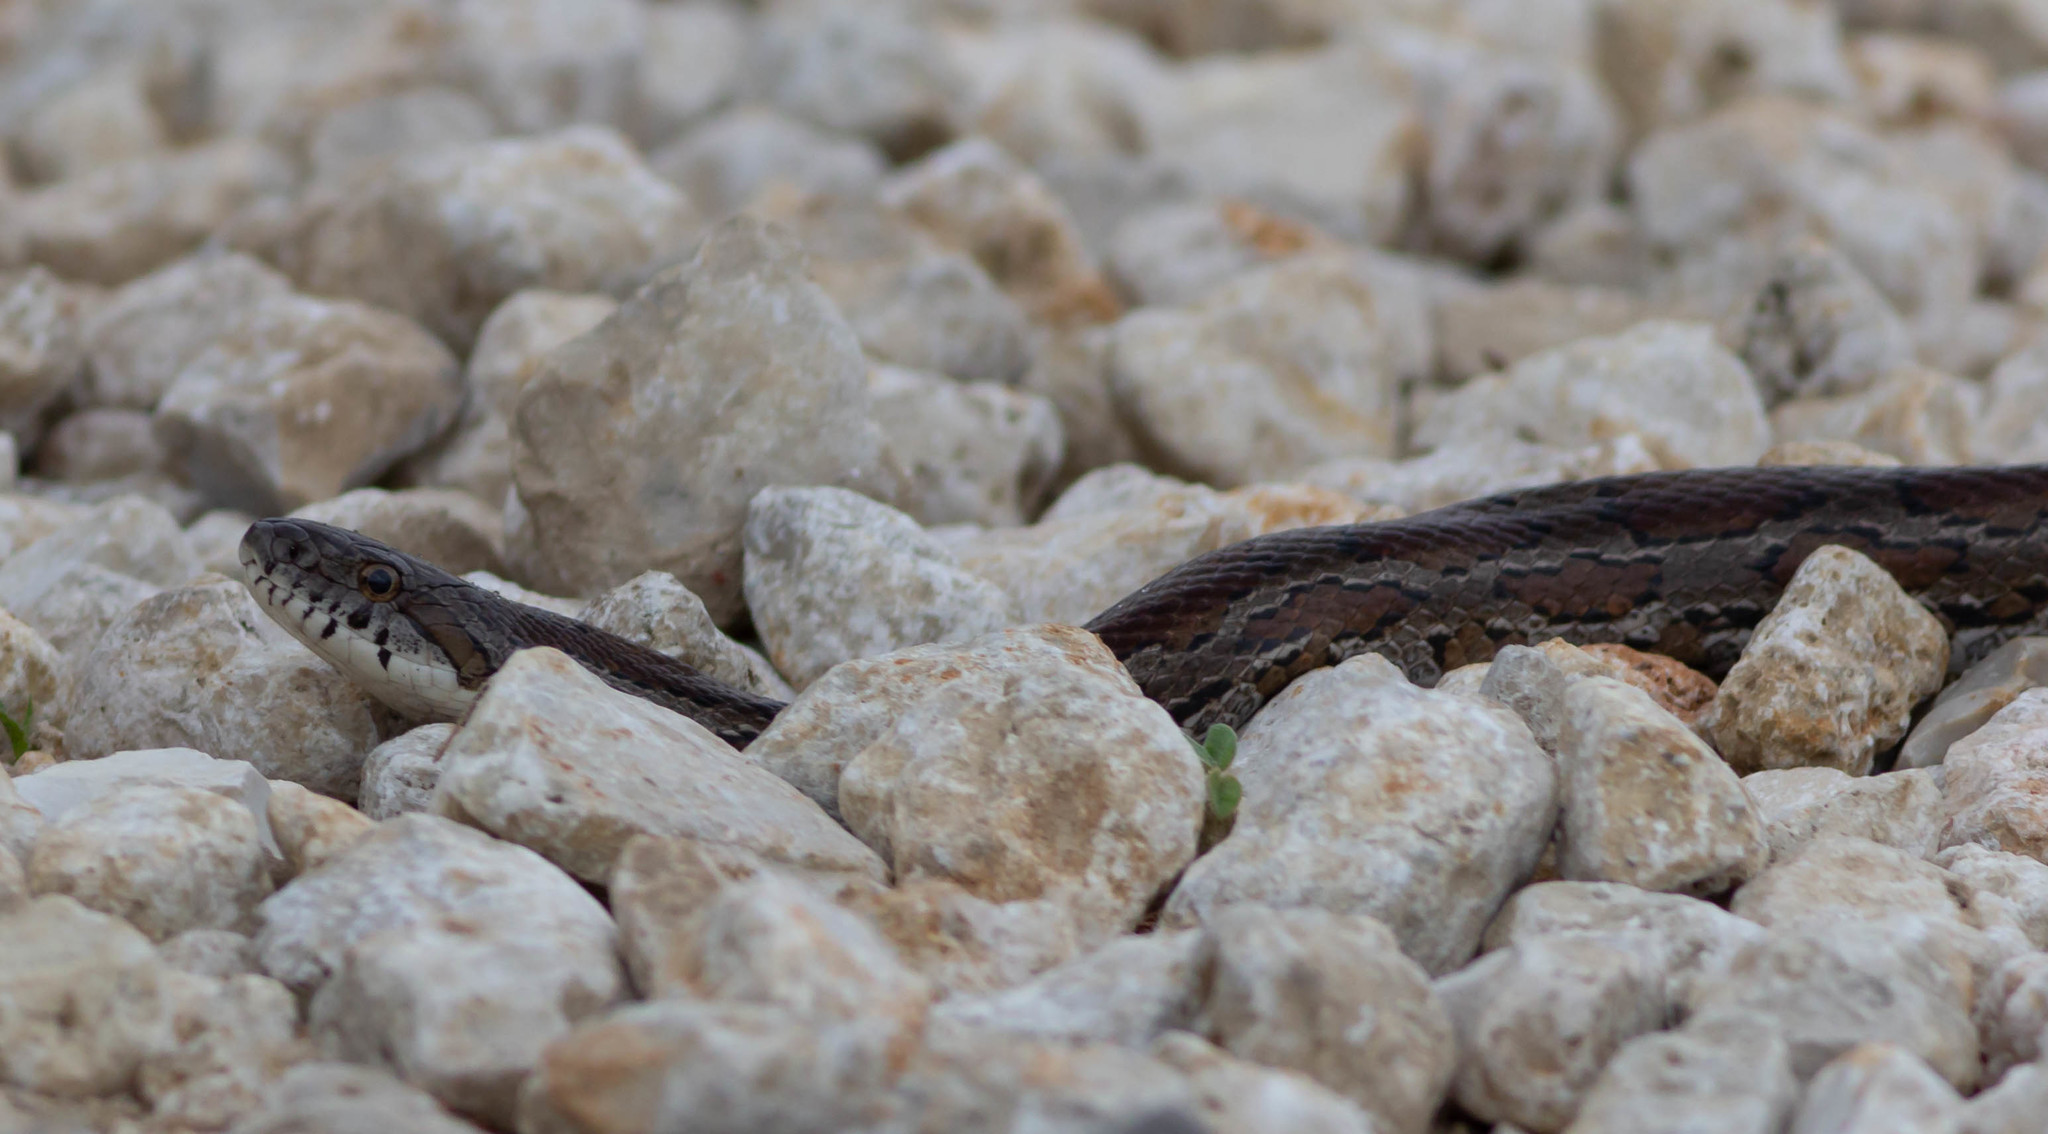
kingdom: Animalia
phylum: Chordata
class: Squamata
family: Colubridae
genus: Pantherophis
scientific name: Pantherophis emoryi
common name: Great plains rat snake
